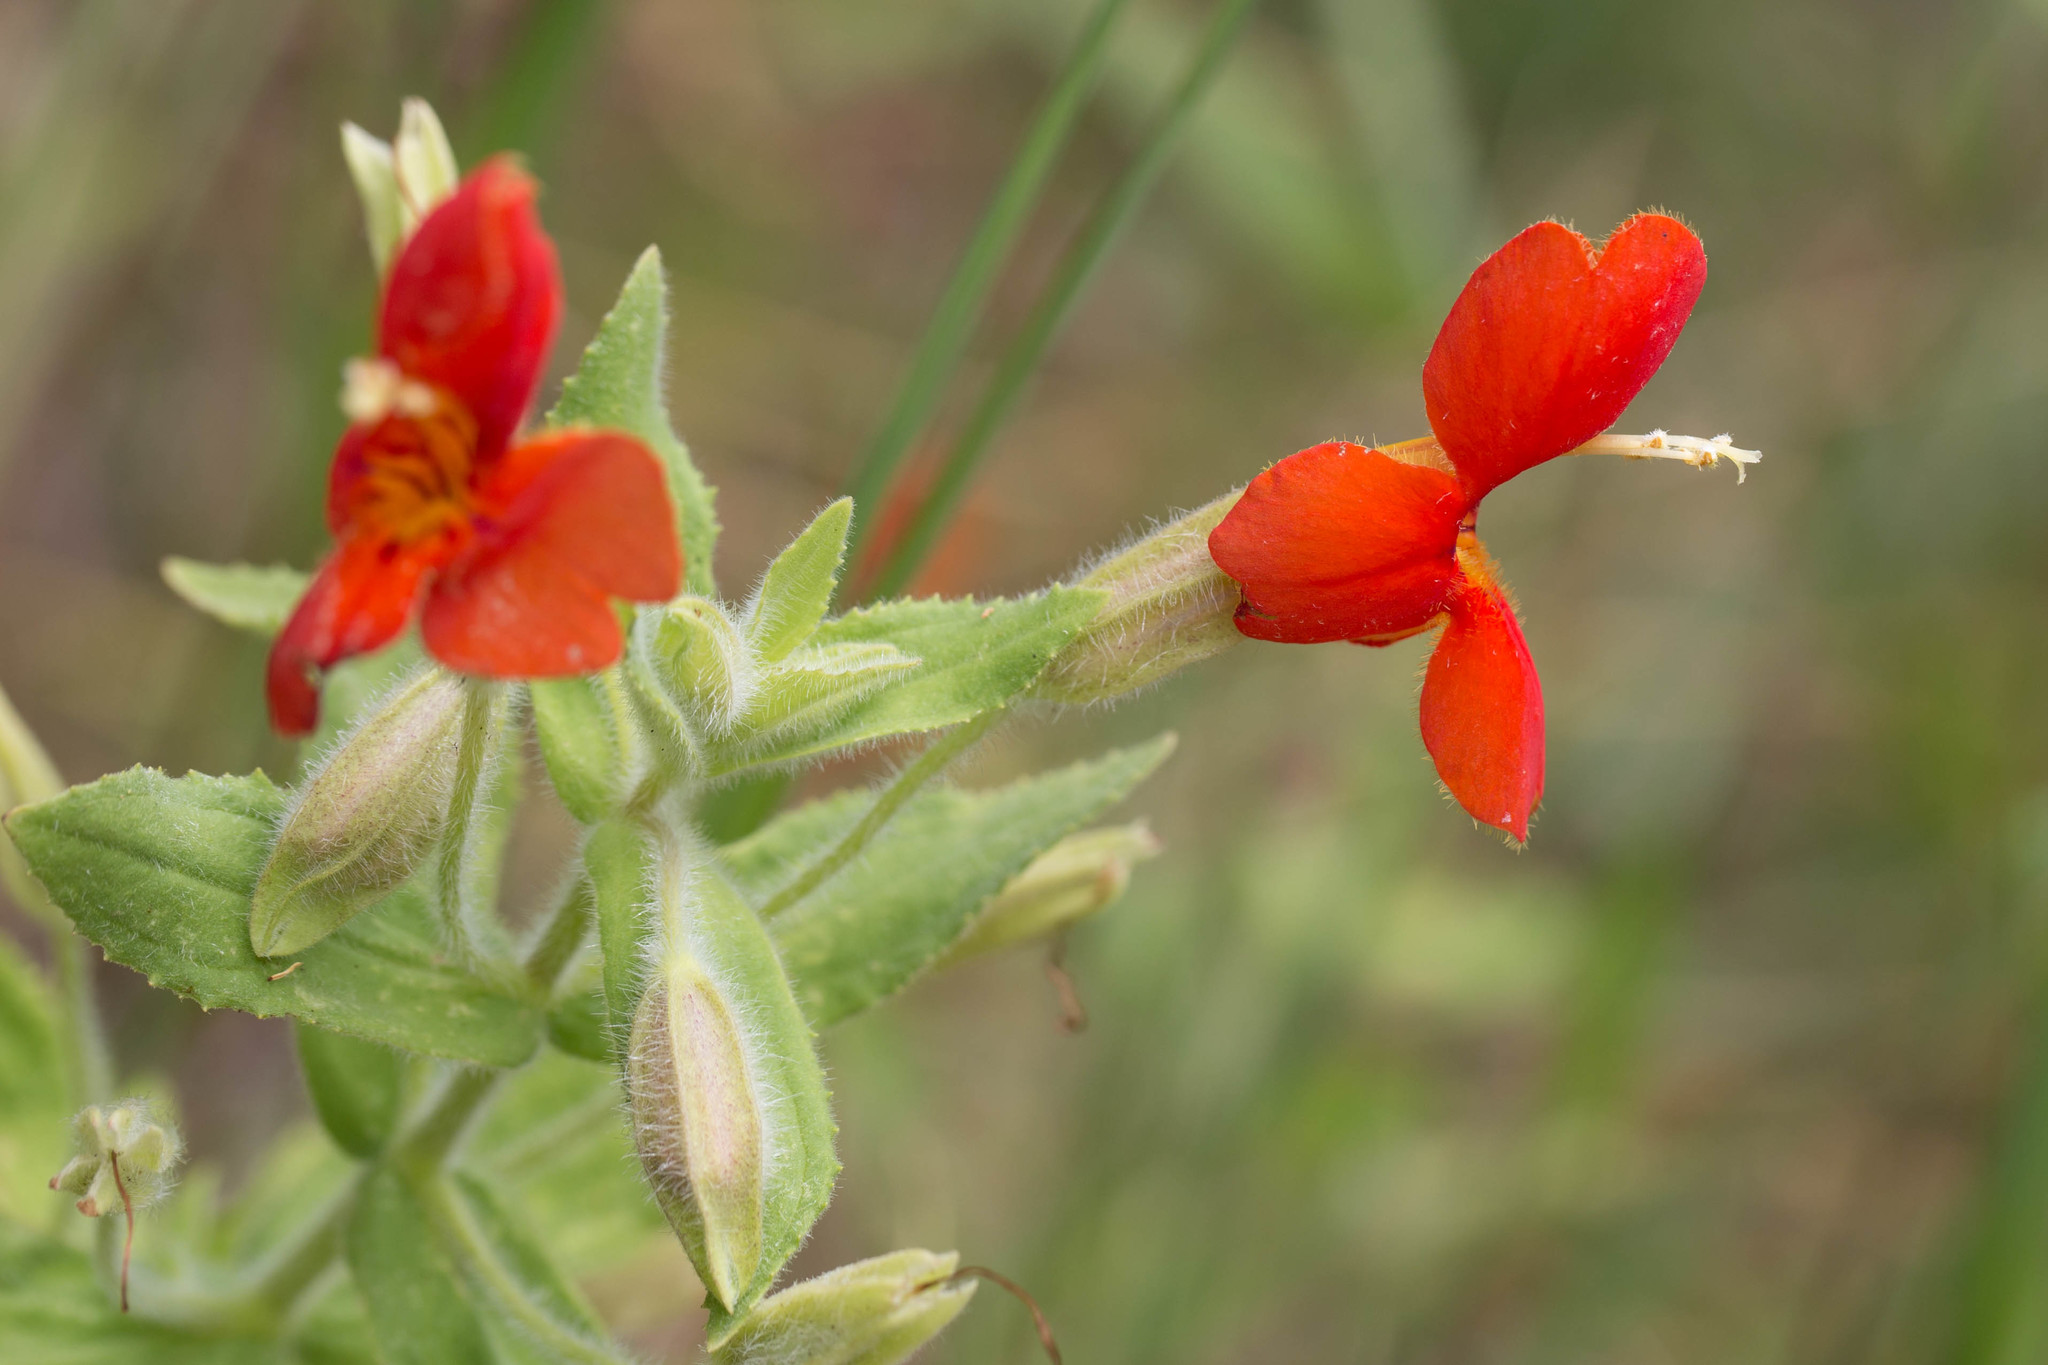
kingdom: Plantae
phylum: Tracheophyta
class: Magnoliopsida
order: Lamiales
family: Phrymaceae
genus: Erythranthe
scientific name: Erythranthe cardinalis
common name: Scarlet monkey-flower
